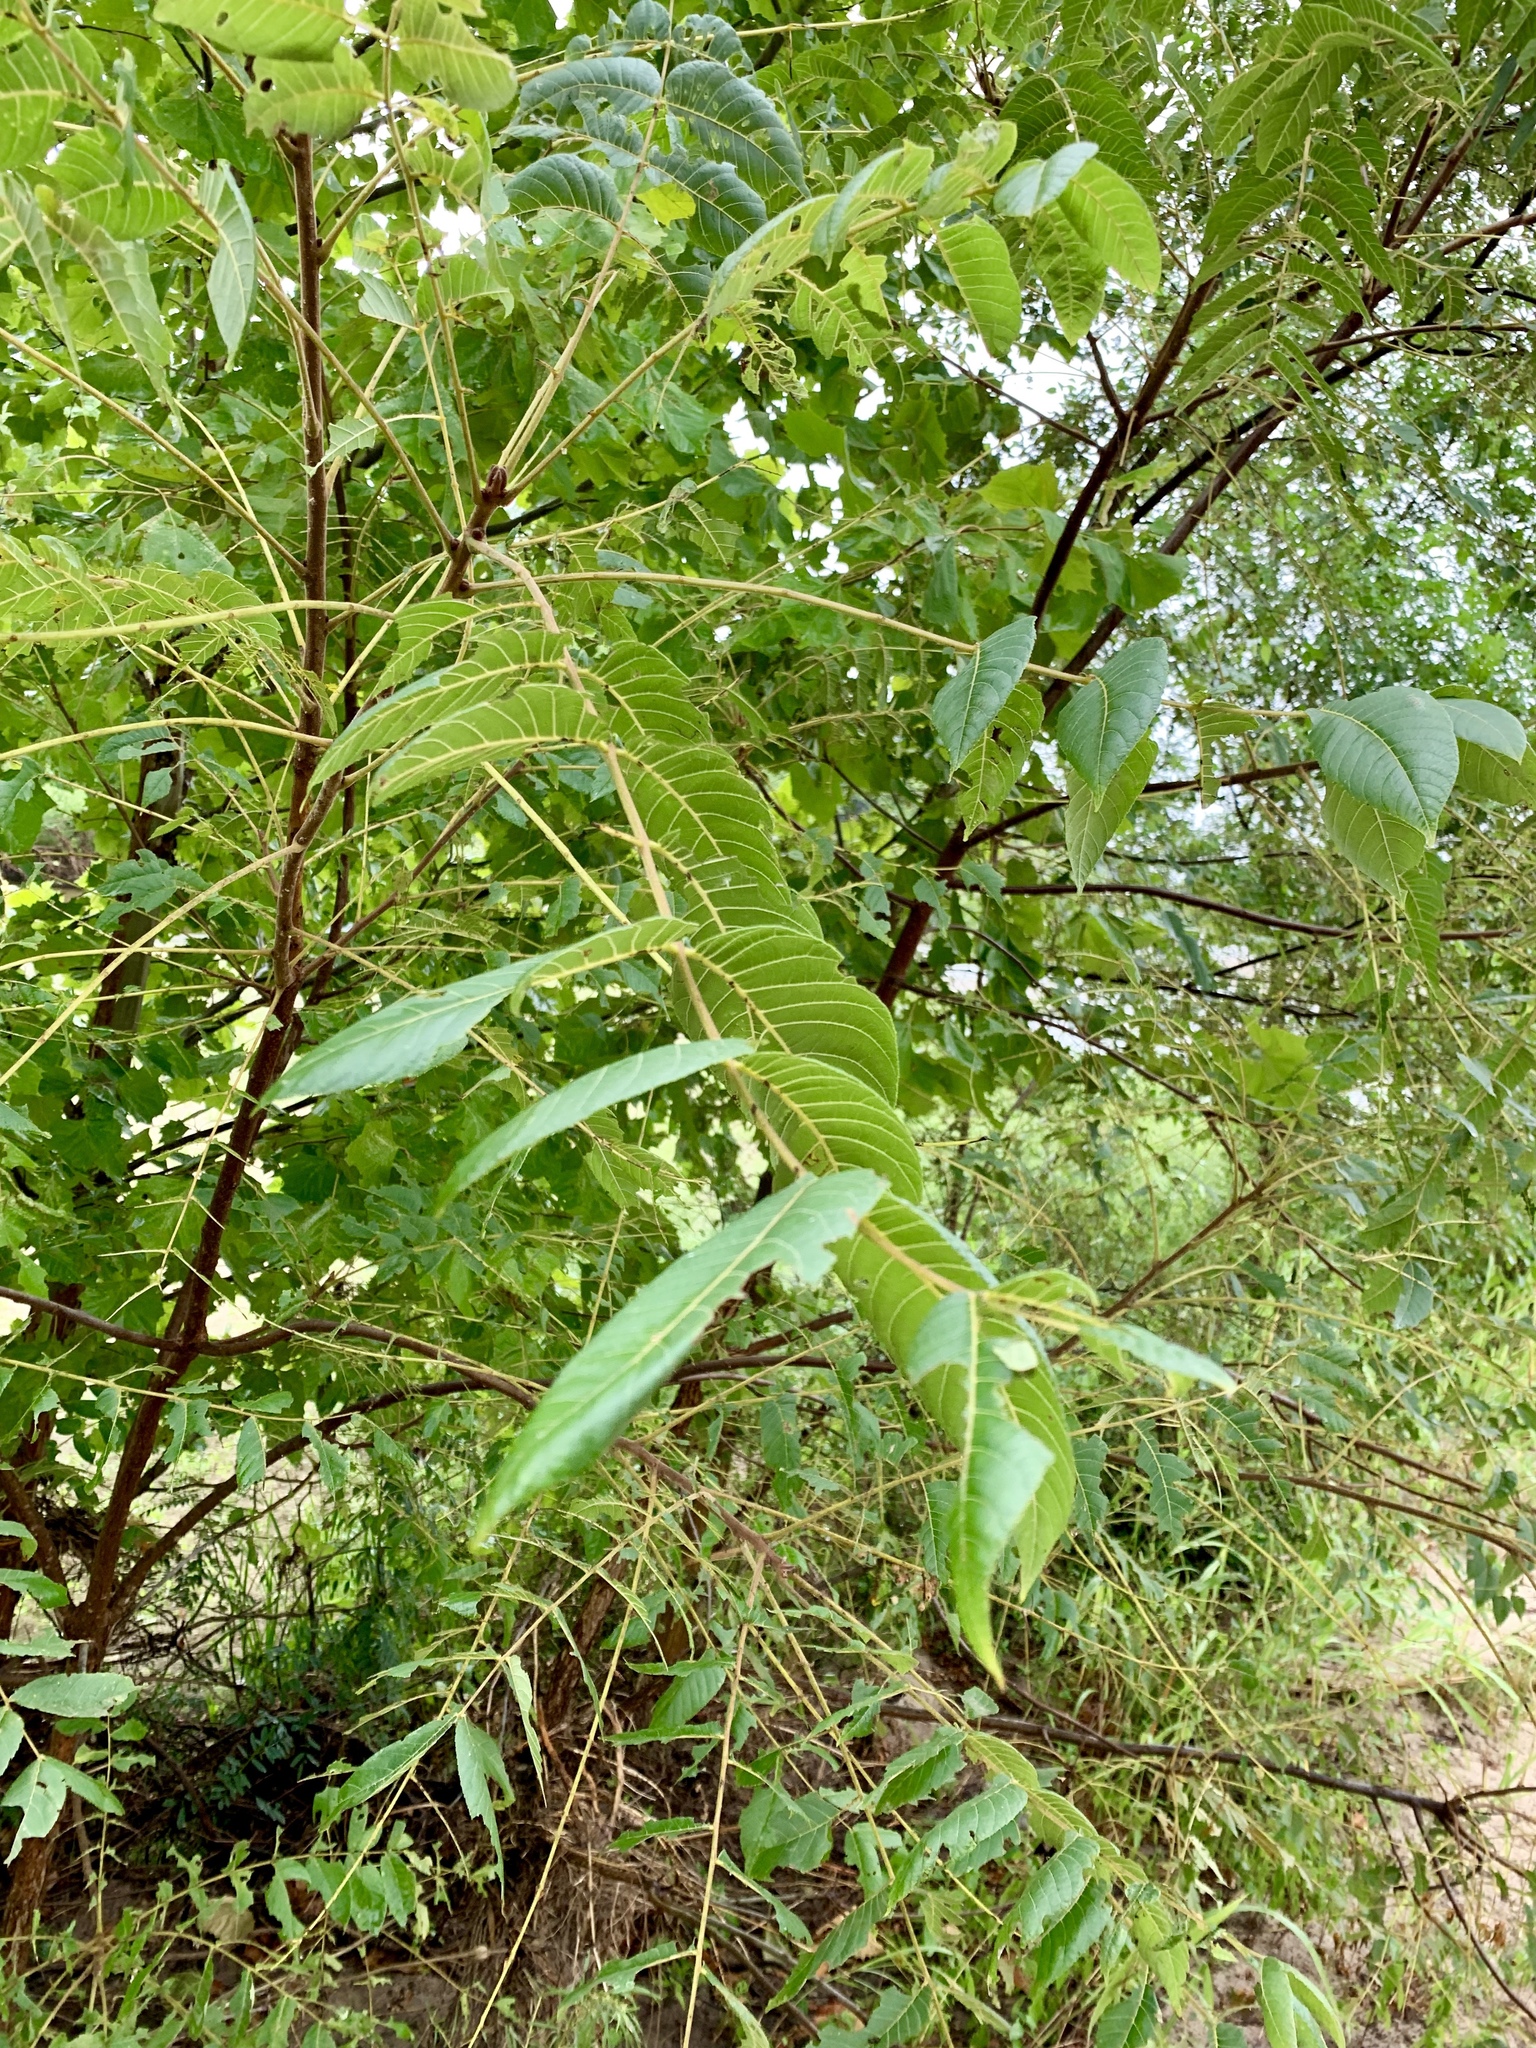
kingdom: Plantae
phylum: Tracheophyta
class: Magnoliopsida
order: Fagales
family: Juglandaceae
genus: Juglans
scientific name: Juglans nigra
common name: Black walnut
